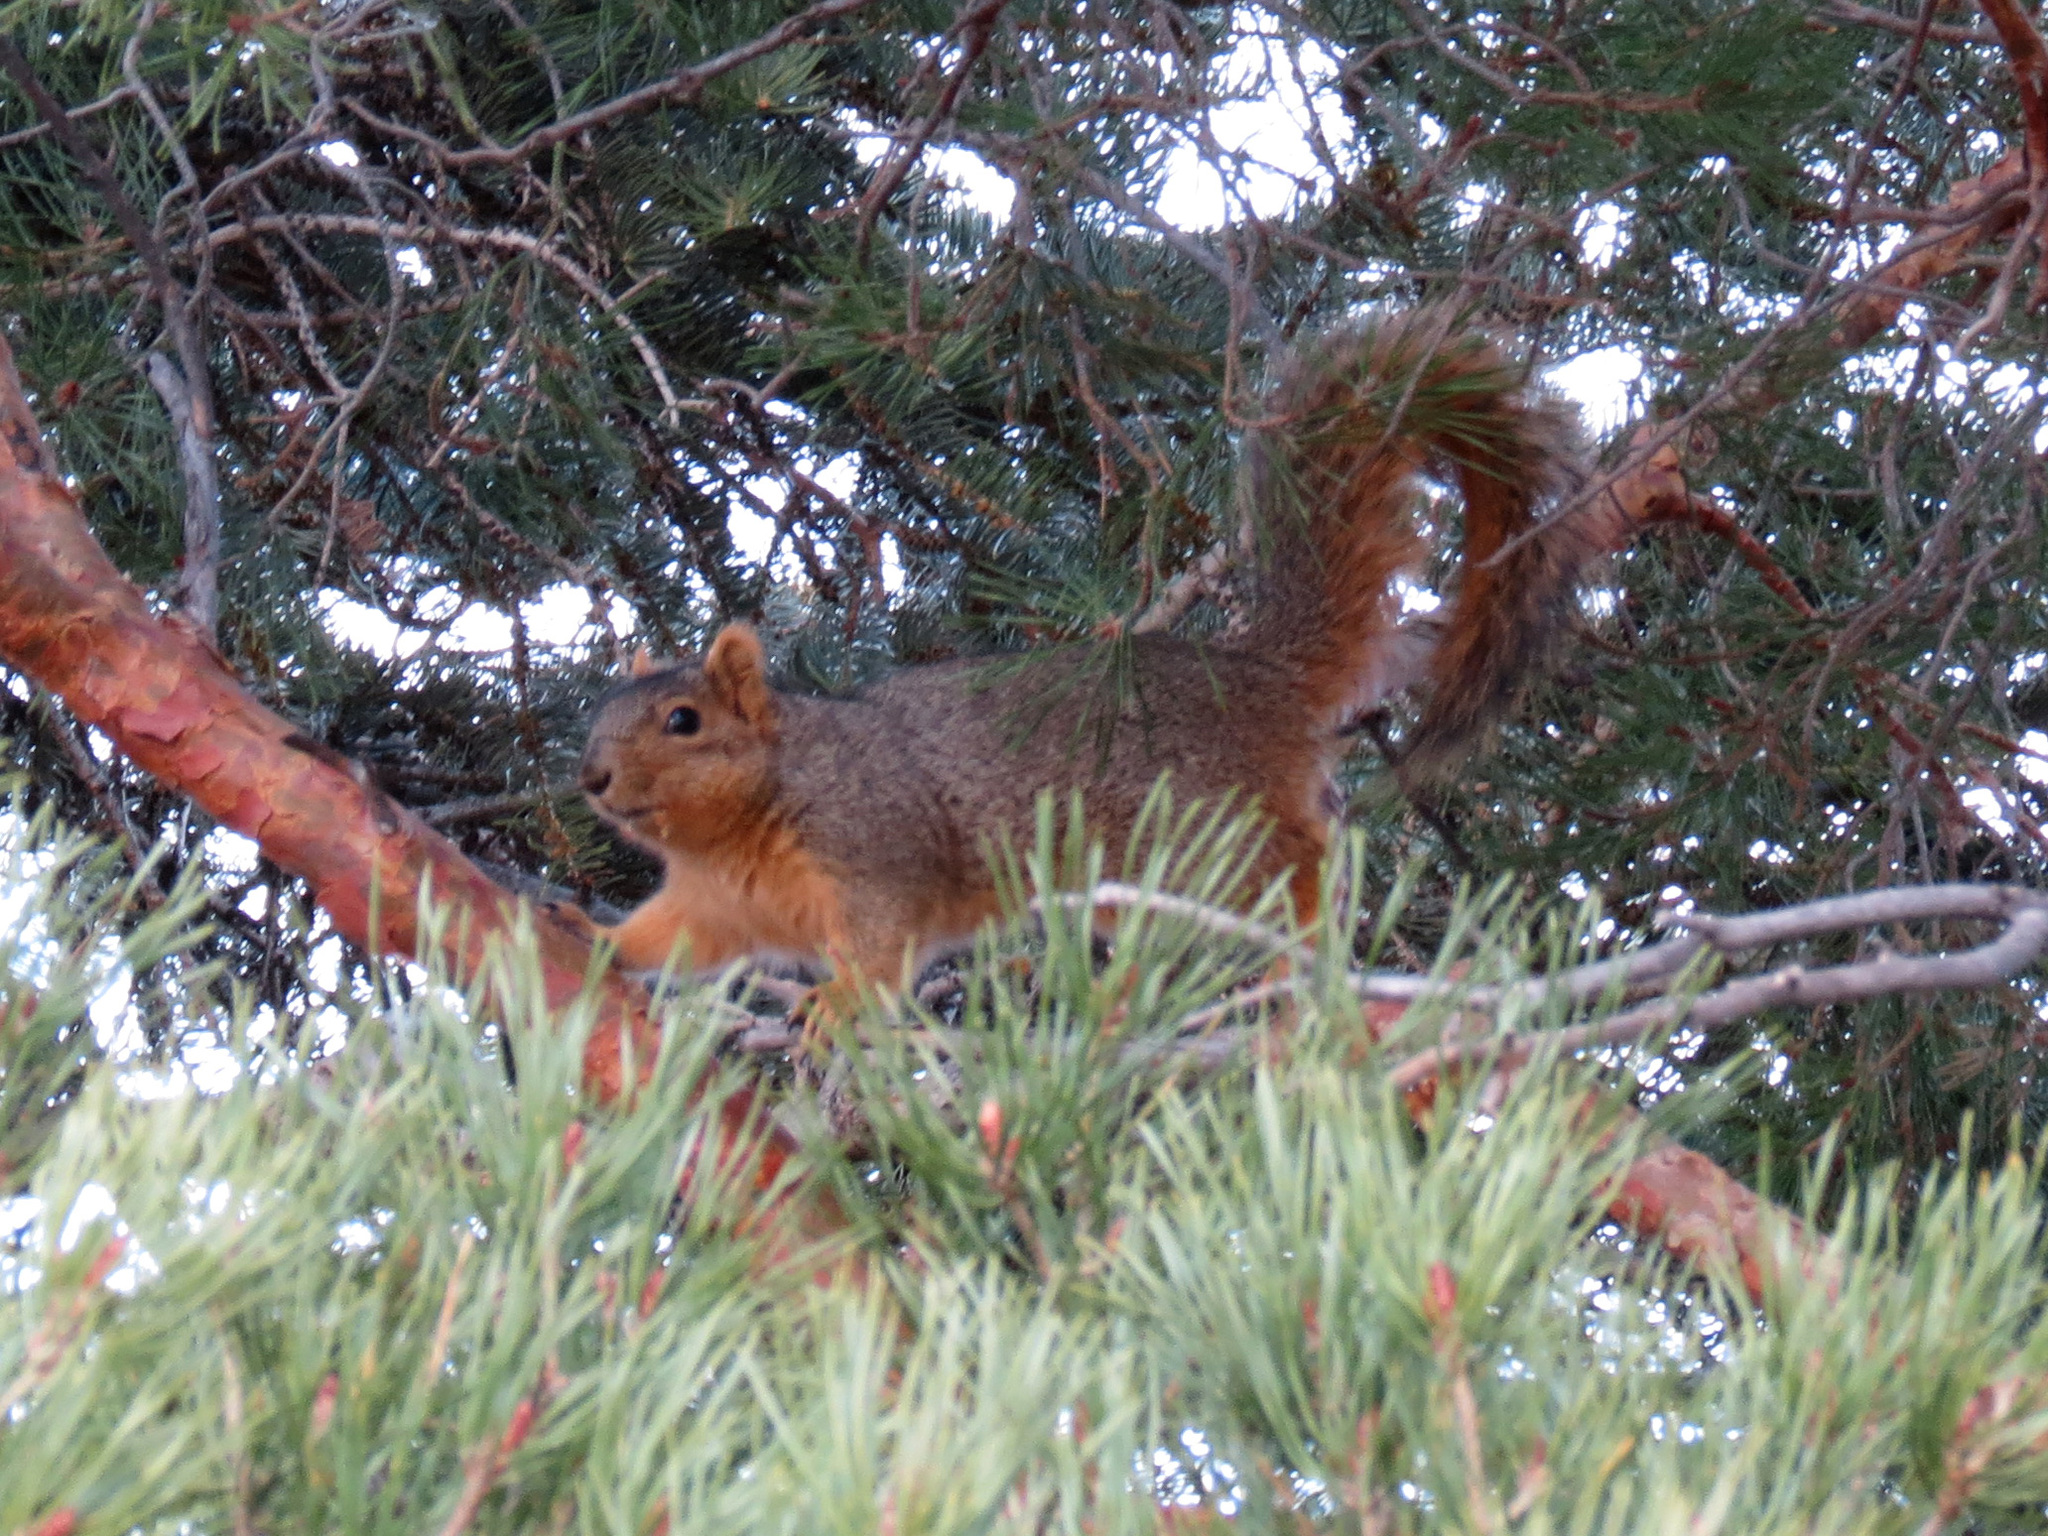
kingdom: Animalia
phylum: Chordata
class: Mammalia
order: Rodentia
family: Sciuridae
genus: Sciurus
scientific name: Sciurus niger
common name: Fox squirrel
